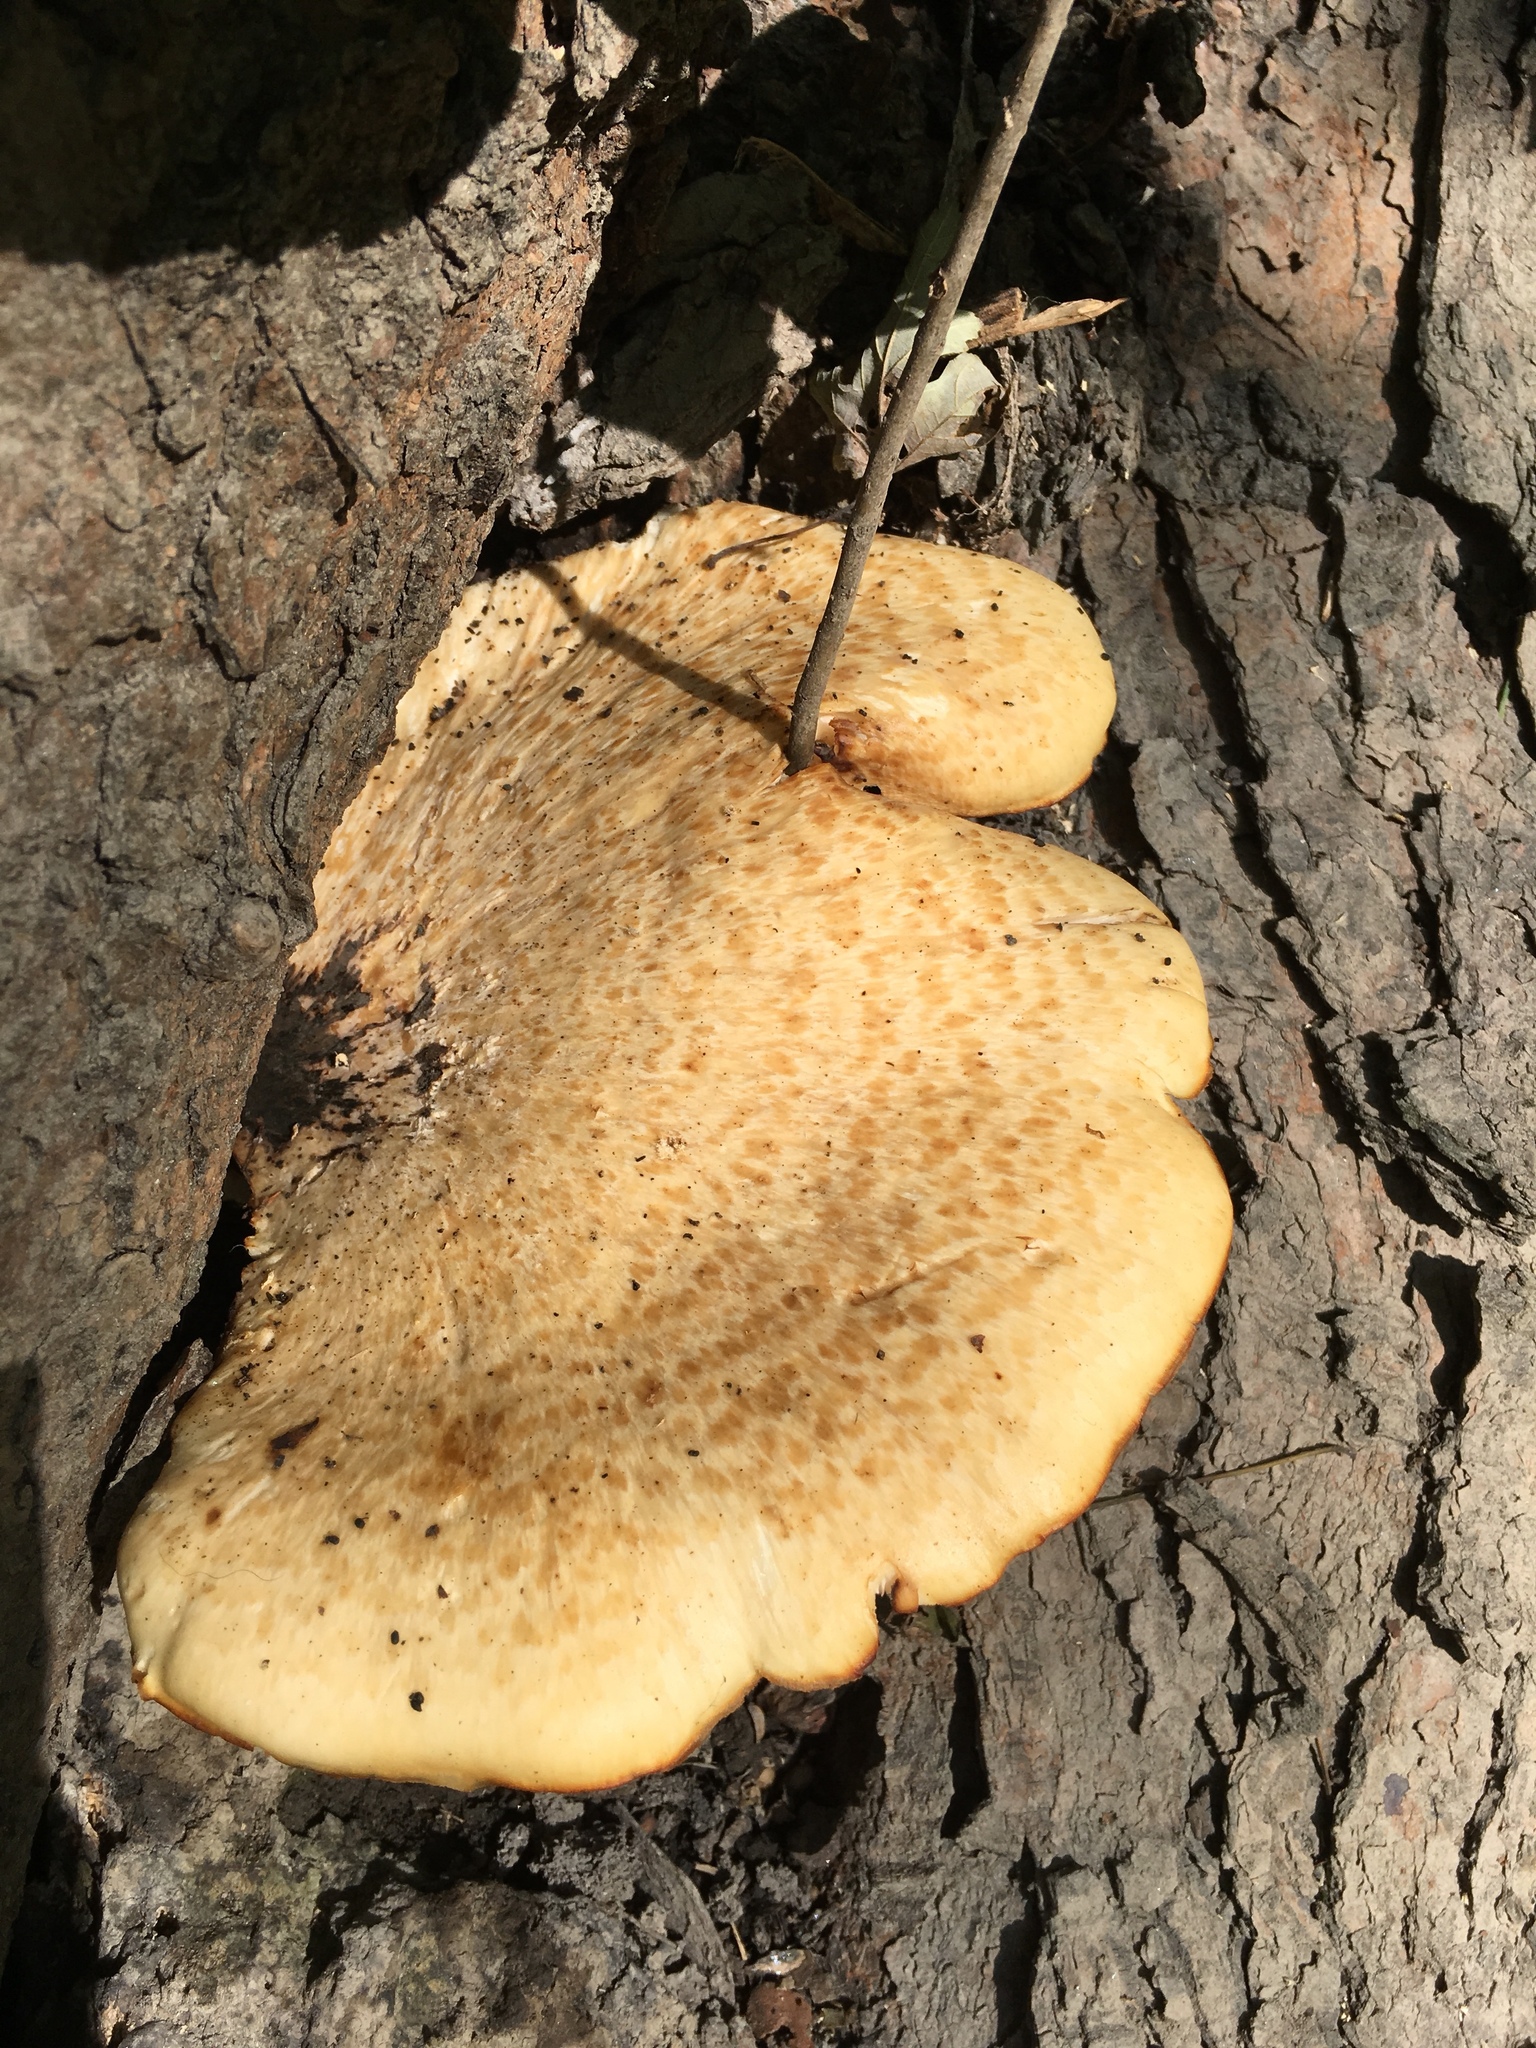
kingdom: Fungi
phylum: Basidiomycota
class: Agaricomycetes
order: Polyporales
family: Polyporaceae
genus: Cerioporus
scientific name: Cerioporus squamosus
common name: Dryad's saddle
